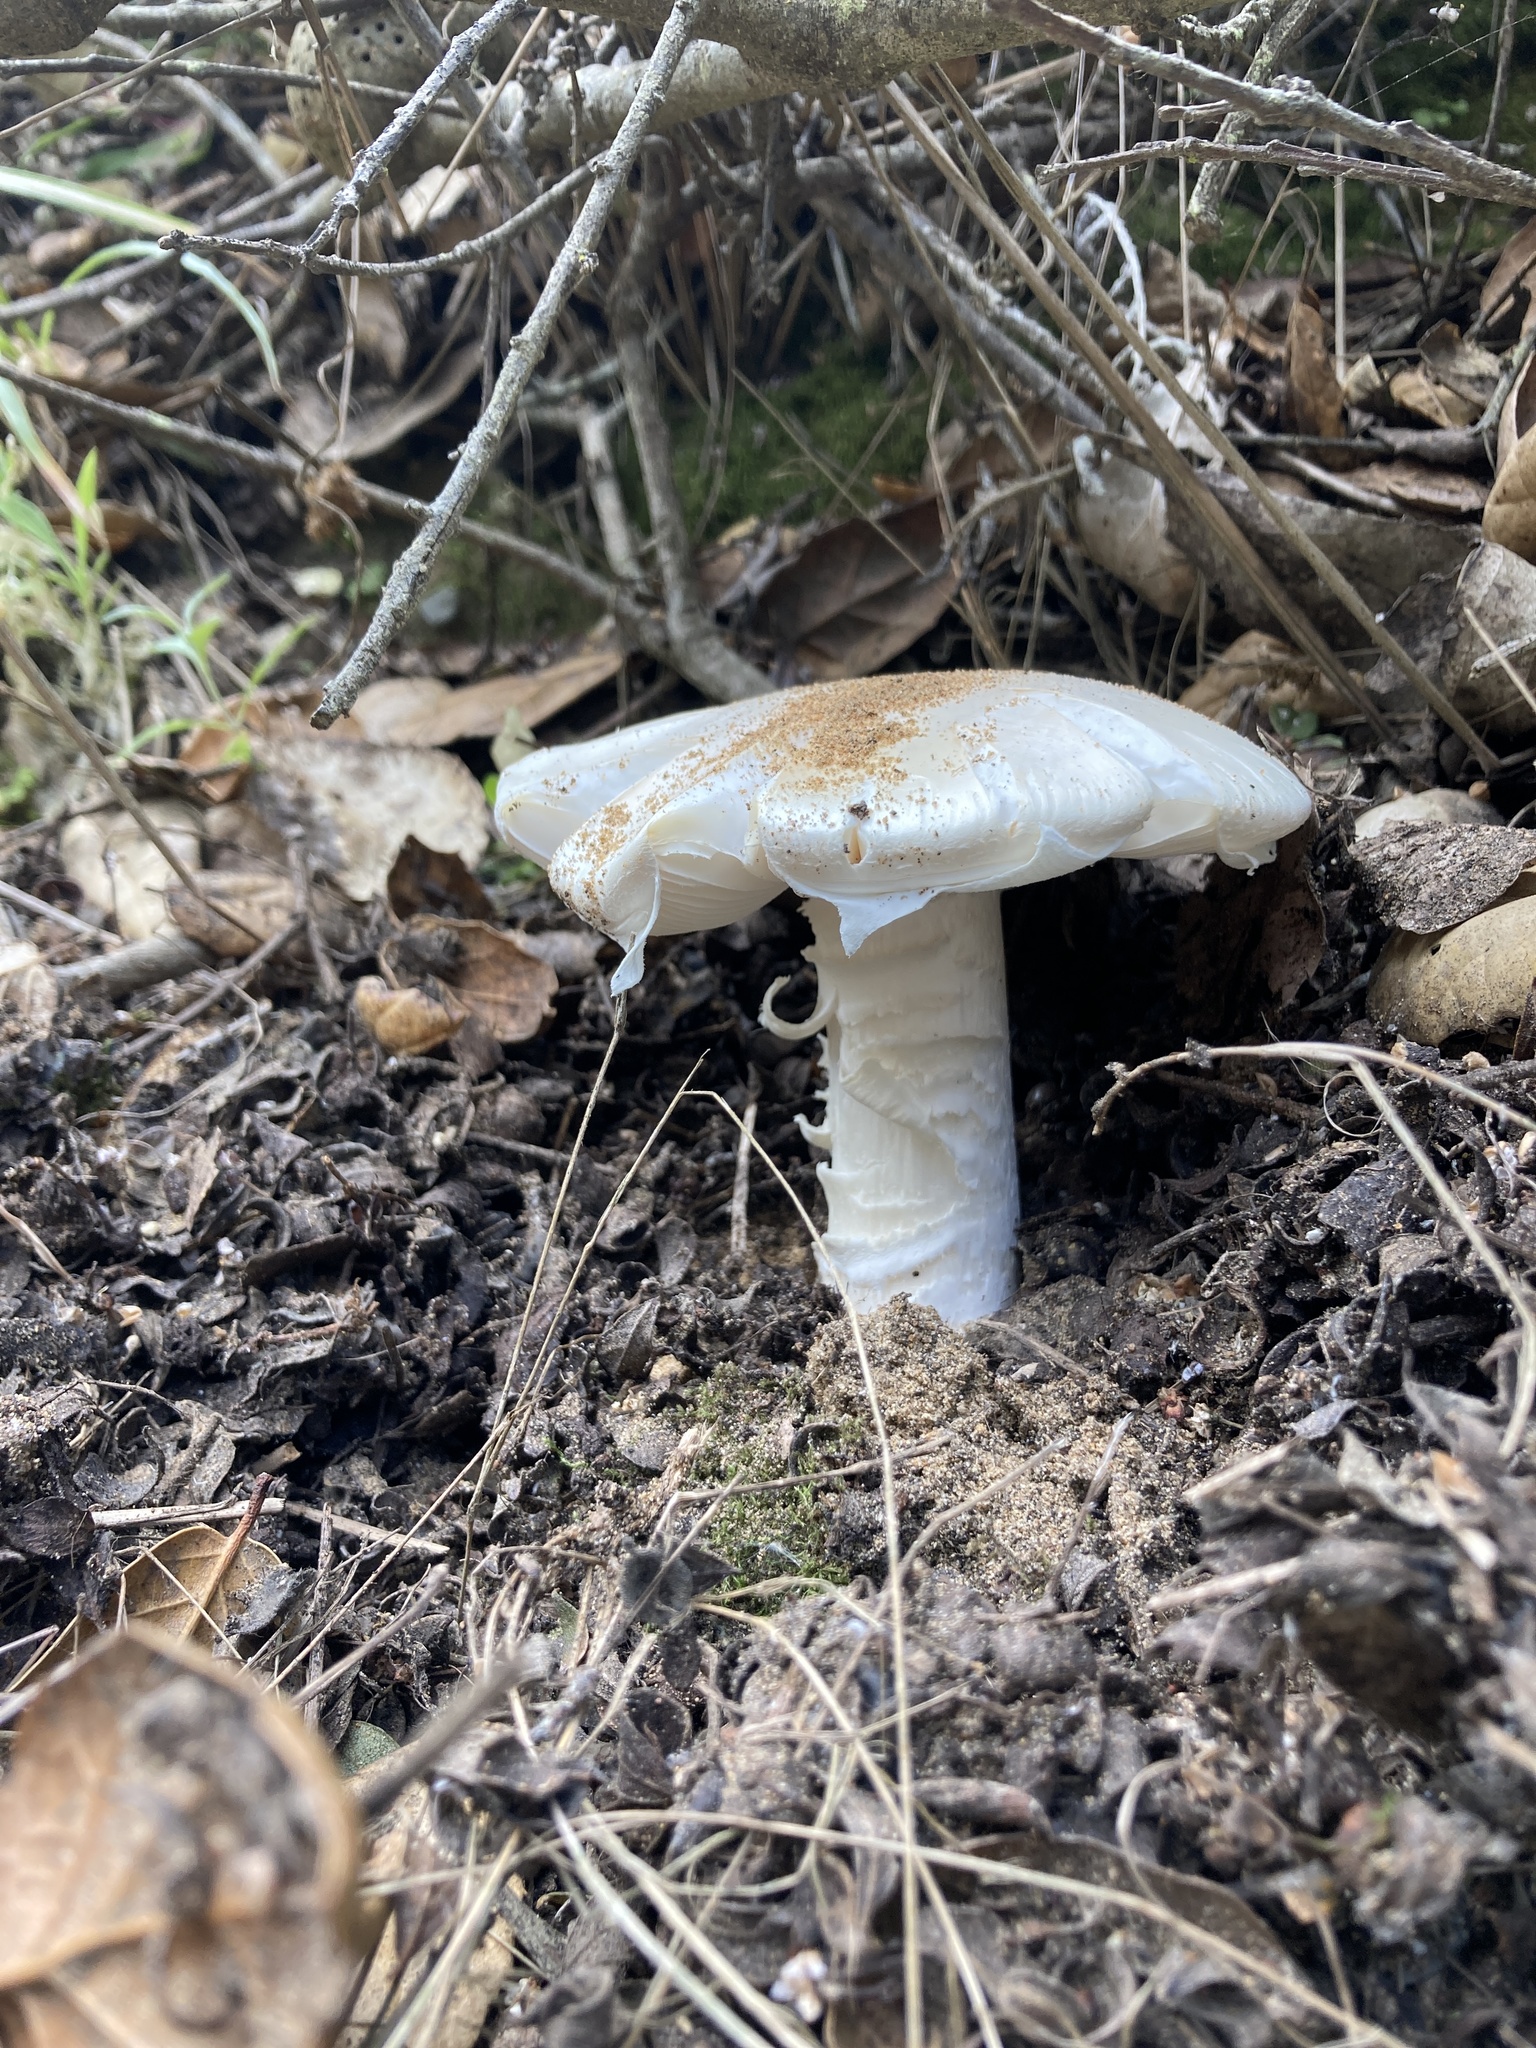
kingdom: Fungi
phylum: Basidiomycota
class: Agaricomycetes
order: Agaricales
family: Amanitaceae
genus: Amanita
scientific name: Amanita ocreata
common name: Western destroying angel
